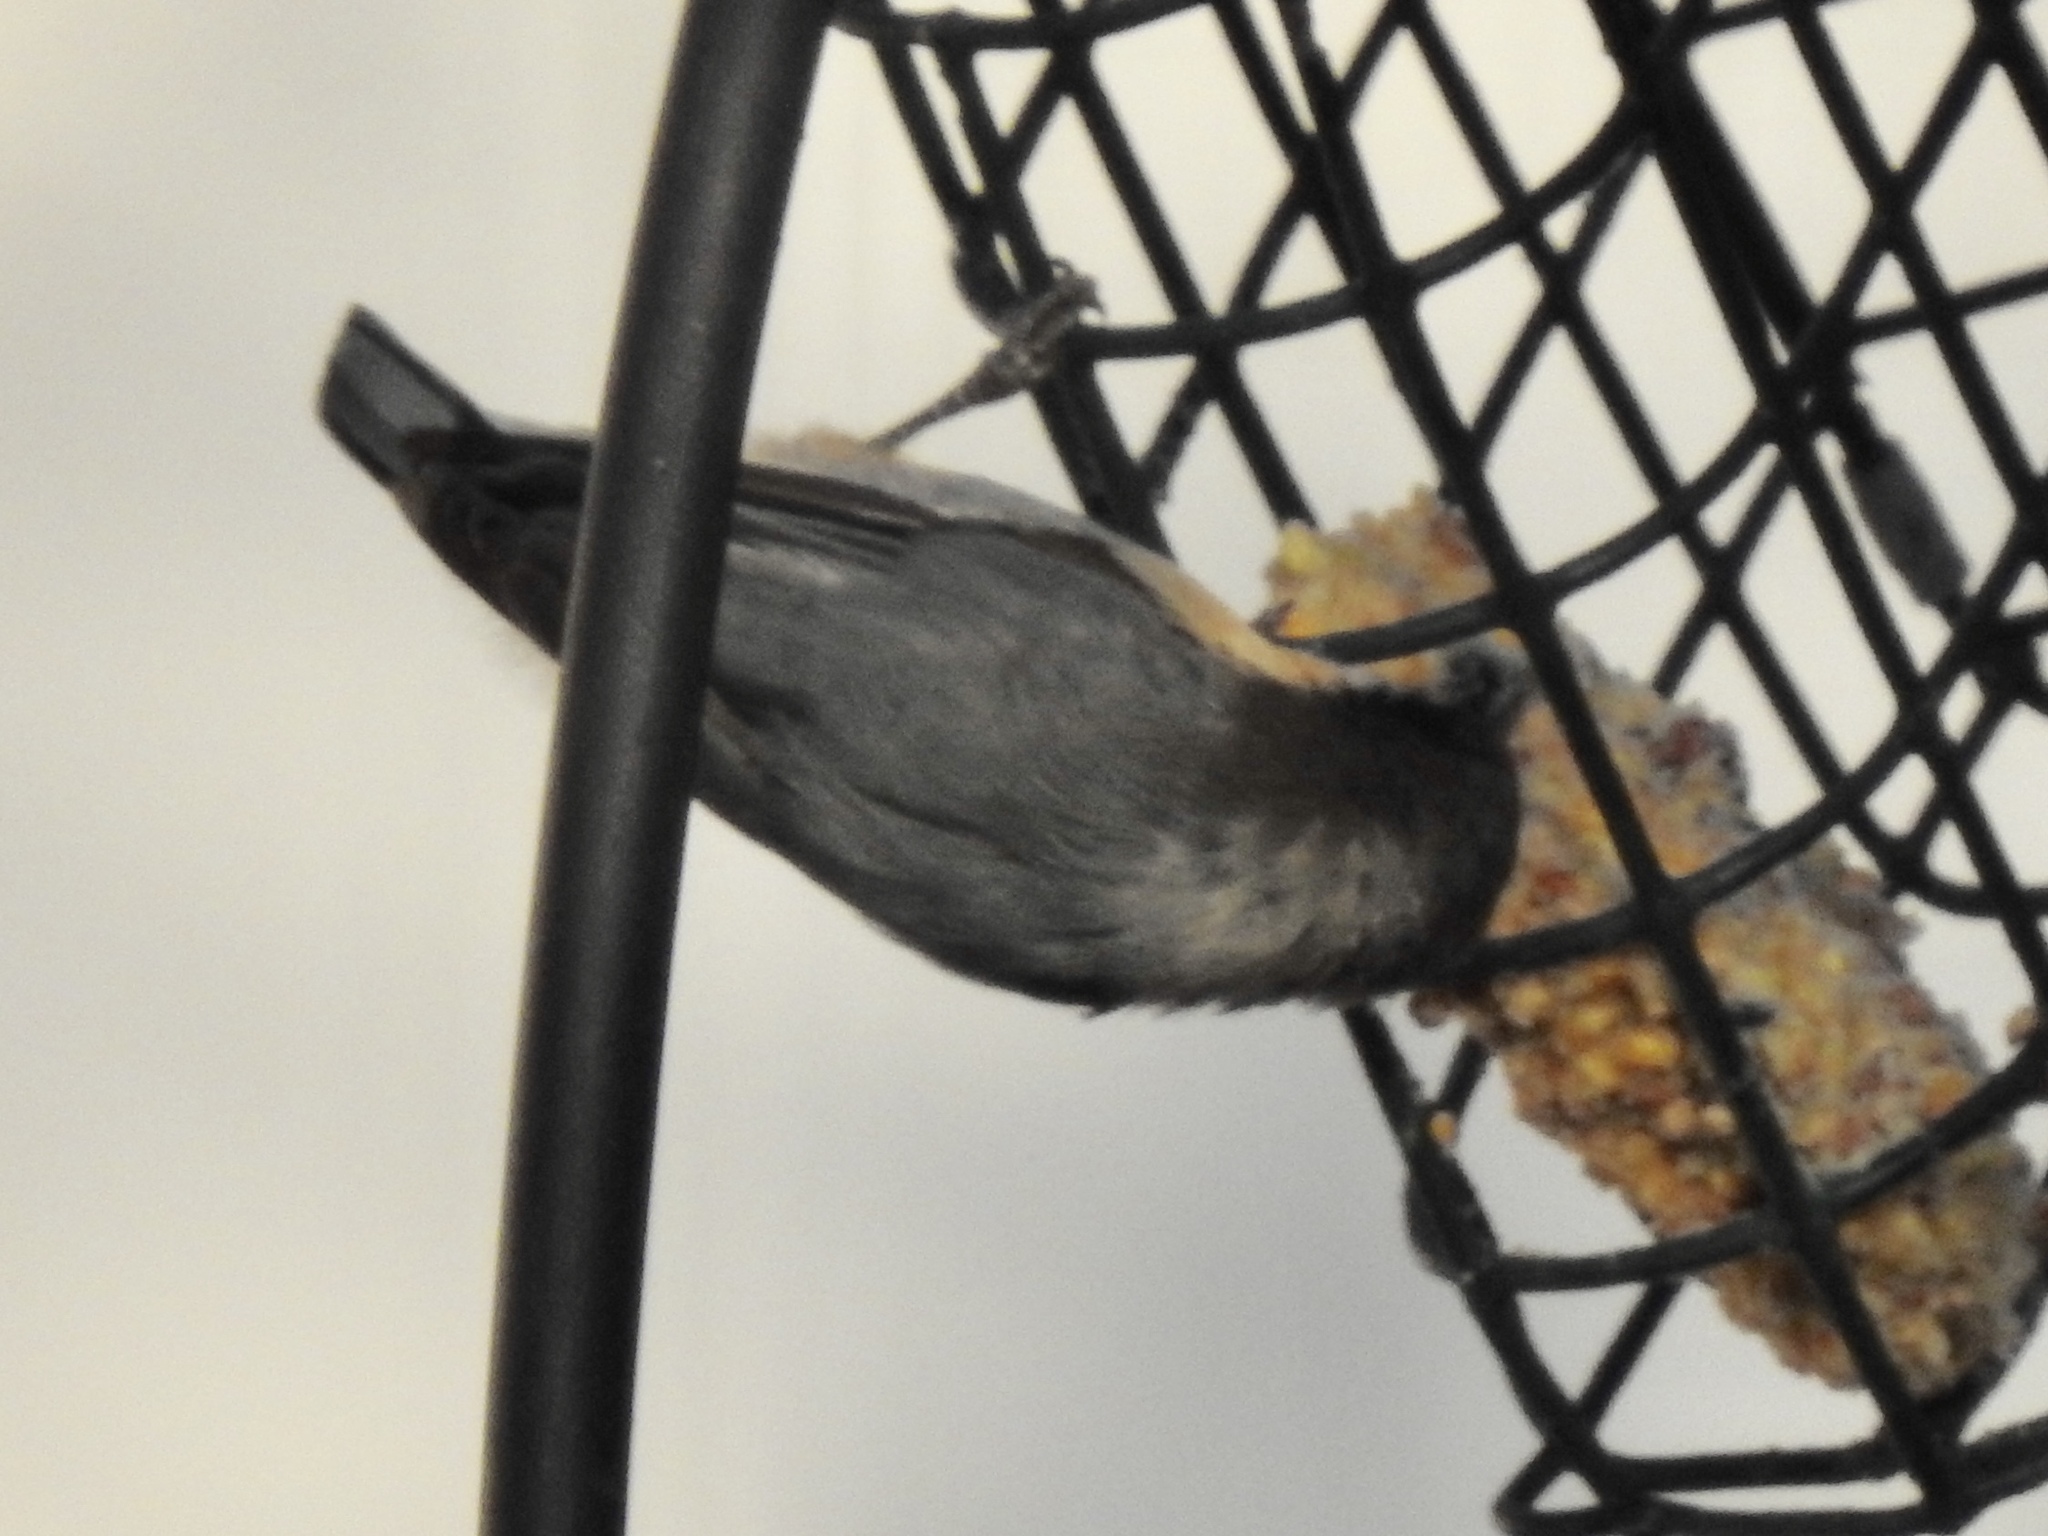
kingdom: Animalia
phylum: Chordata
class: Aves
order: Passeriformes
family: Sittidae
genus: Sitta
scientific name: Sitta pygmaea
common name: Pygmy nuthatch
